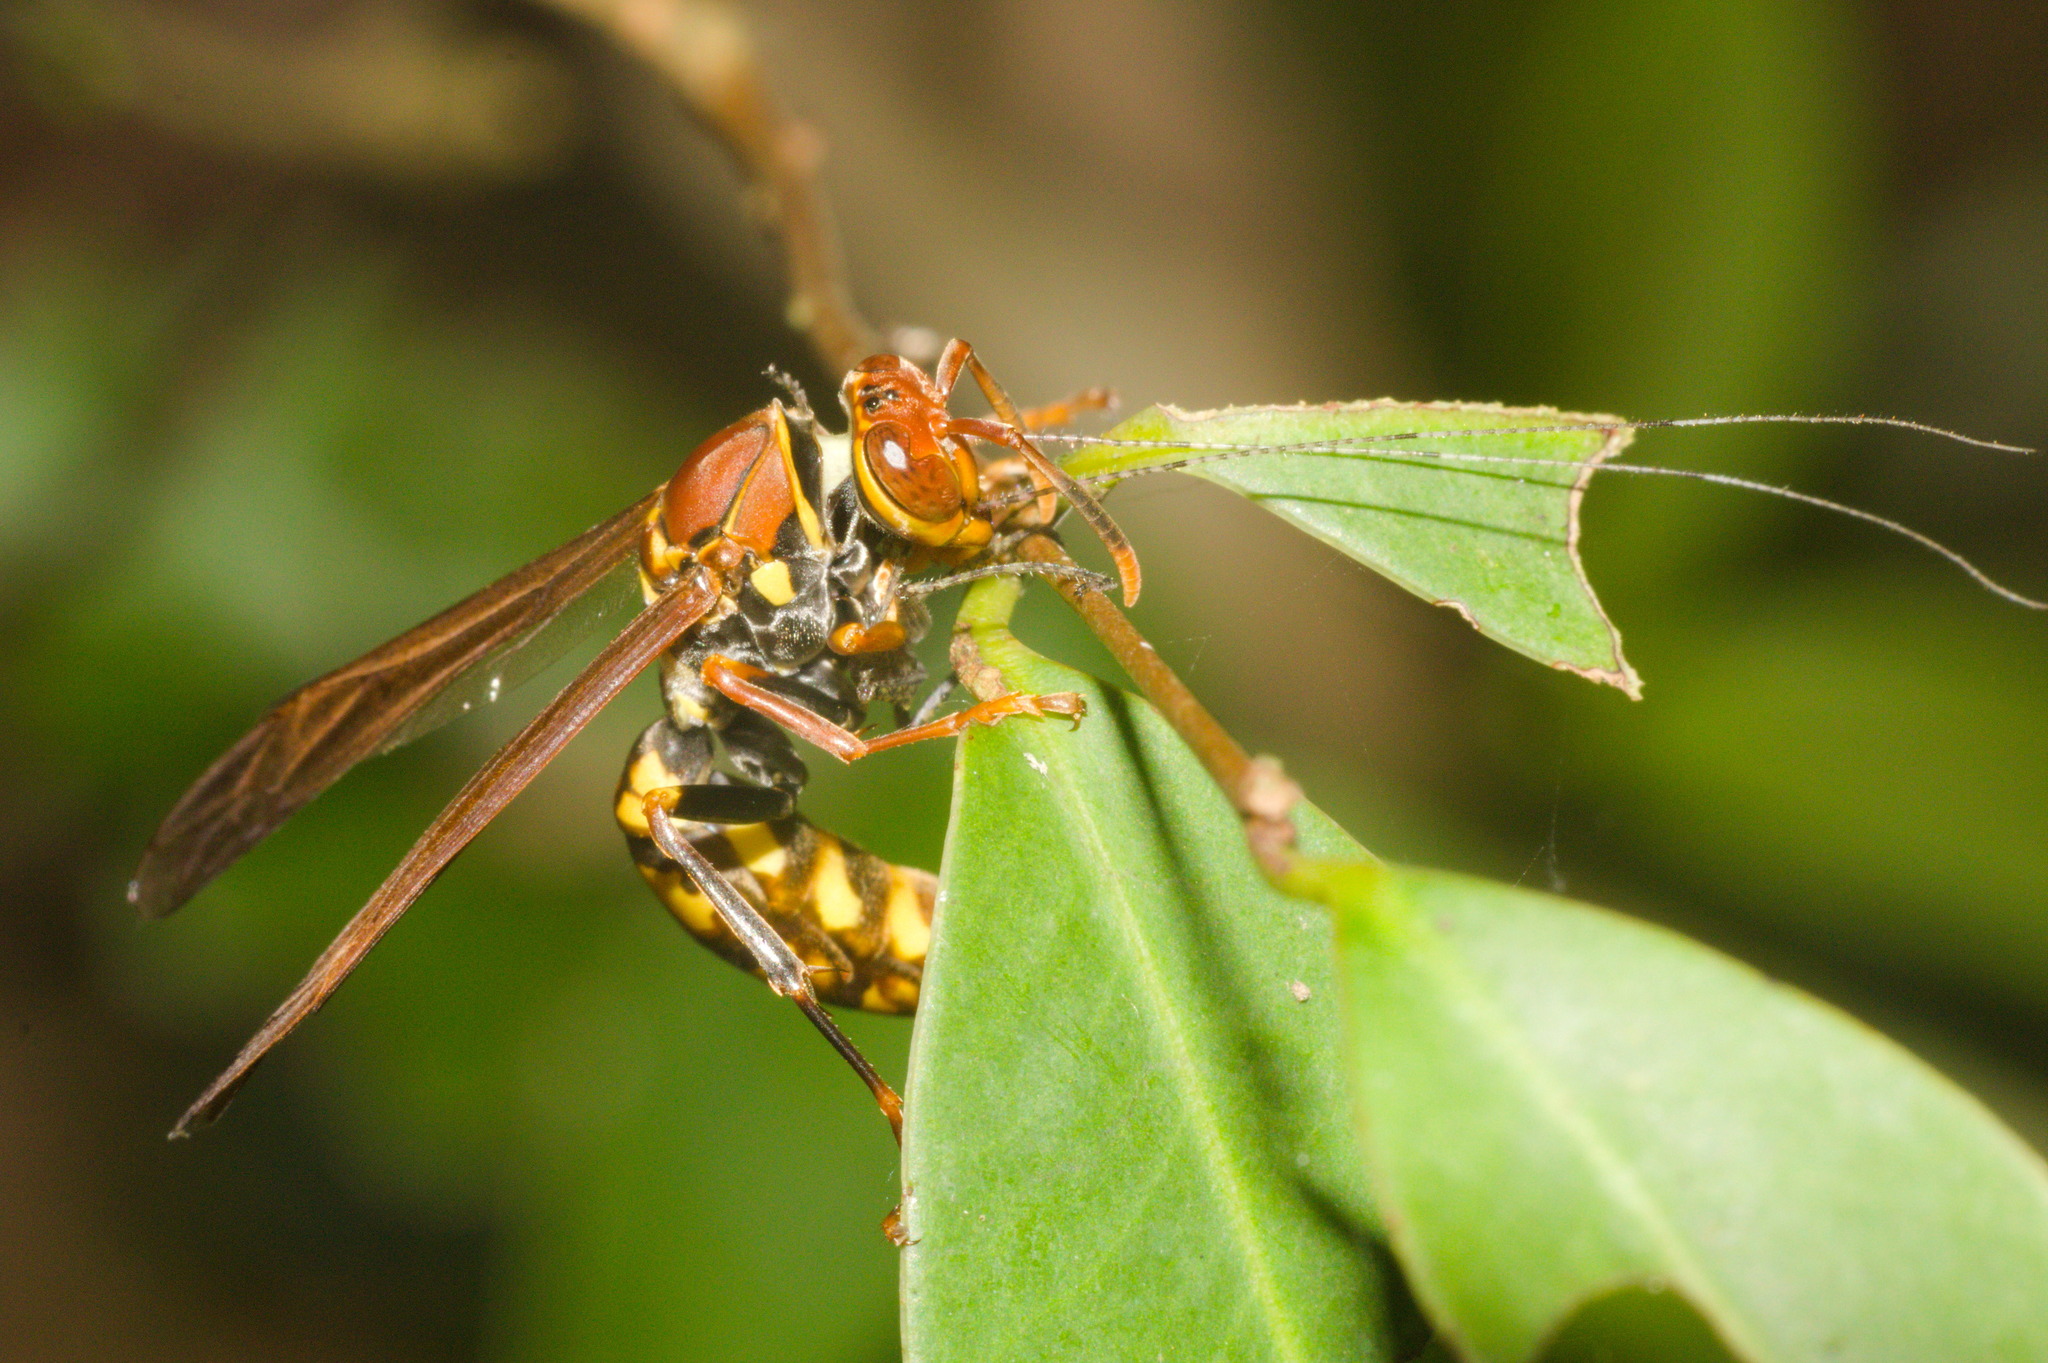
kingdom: Animalia
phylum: Arthropoda
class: Insecta
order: Hymenoptera
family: Eumenidae
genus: Polistes
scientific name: Polistes versicolor
